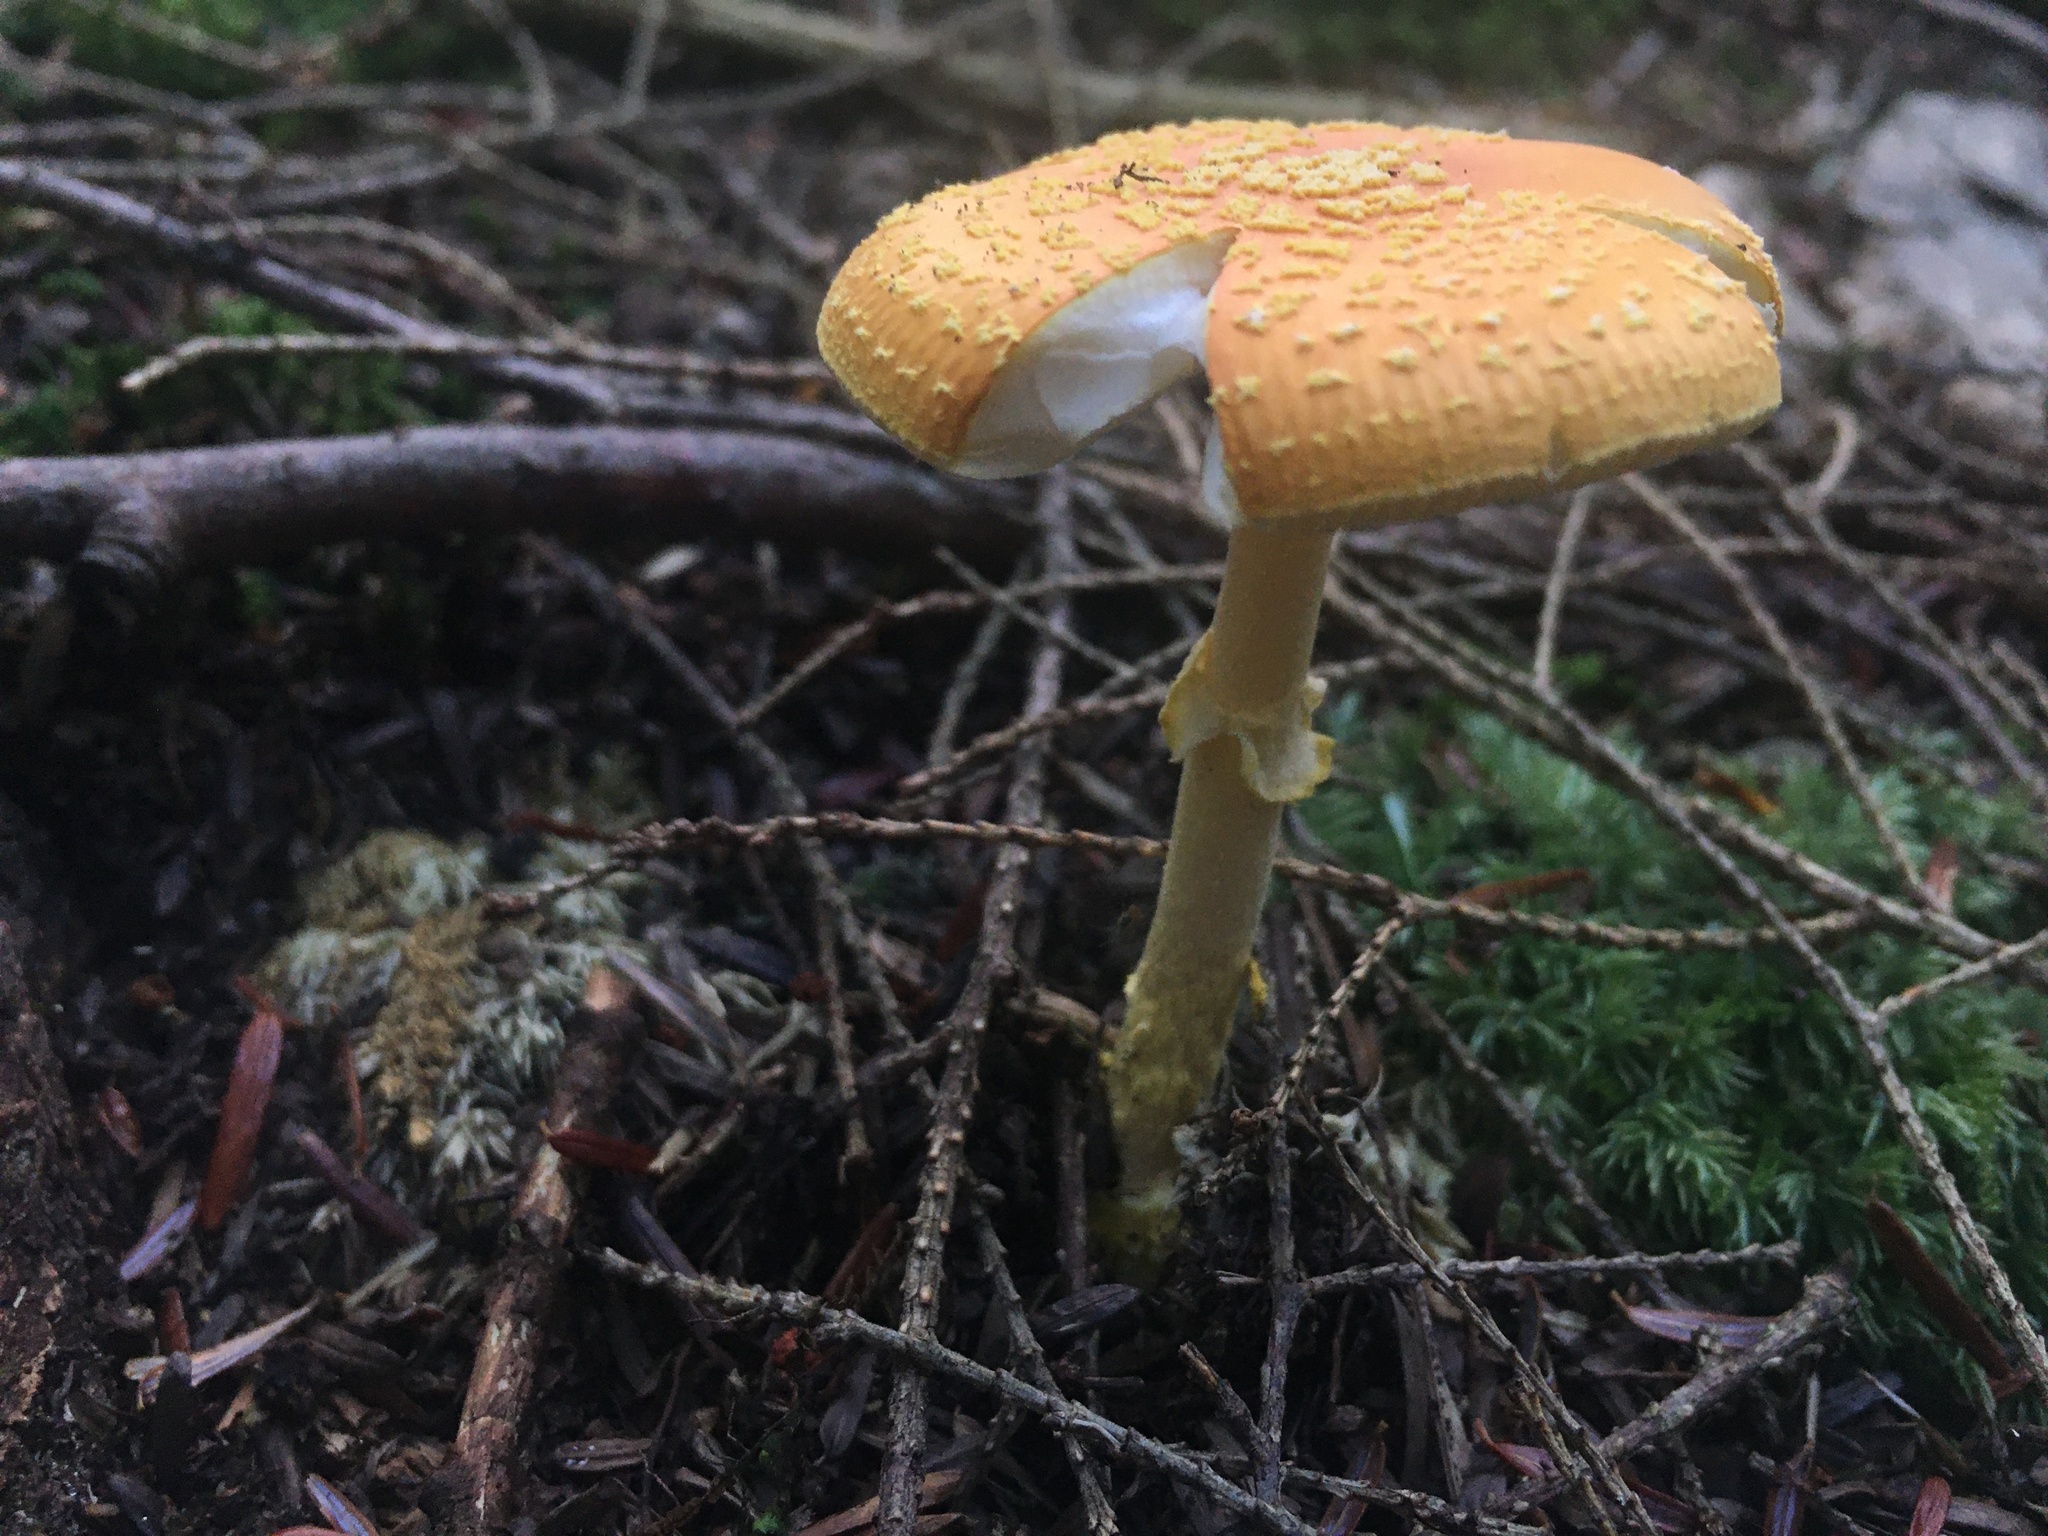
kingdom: Fungi
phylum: Basidiomycota
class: Agaricomycetes
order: Agaricales
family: Amanitaceae
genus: Amanita
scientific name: Amanita flavoconia
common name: Yellow patches
